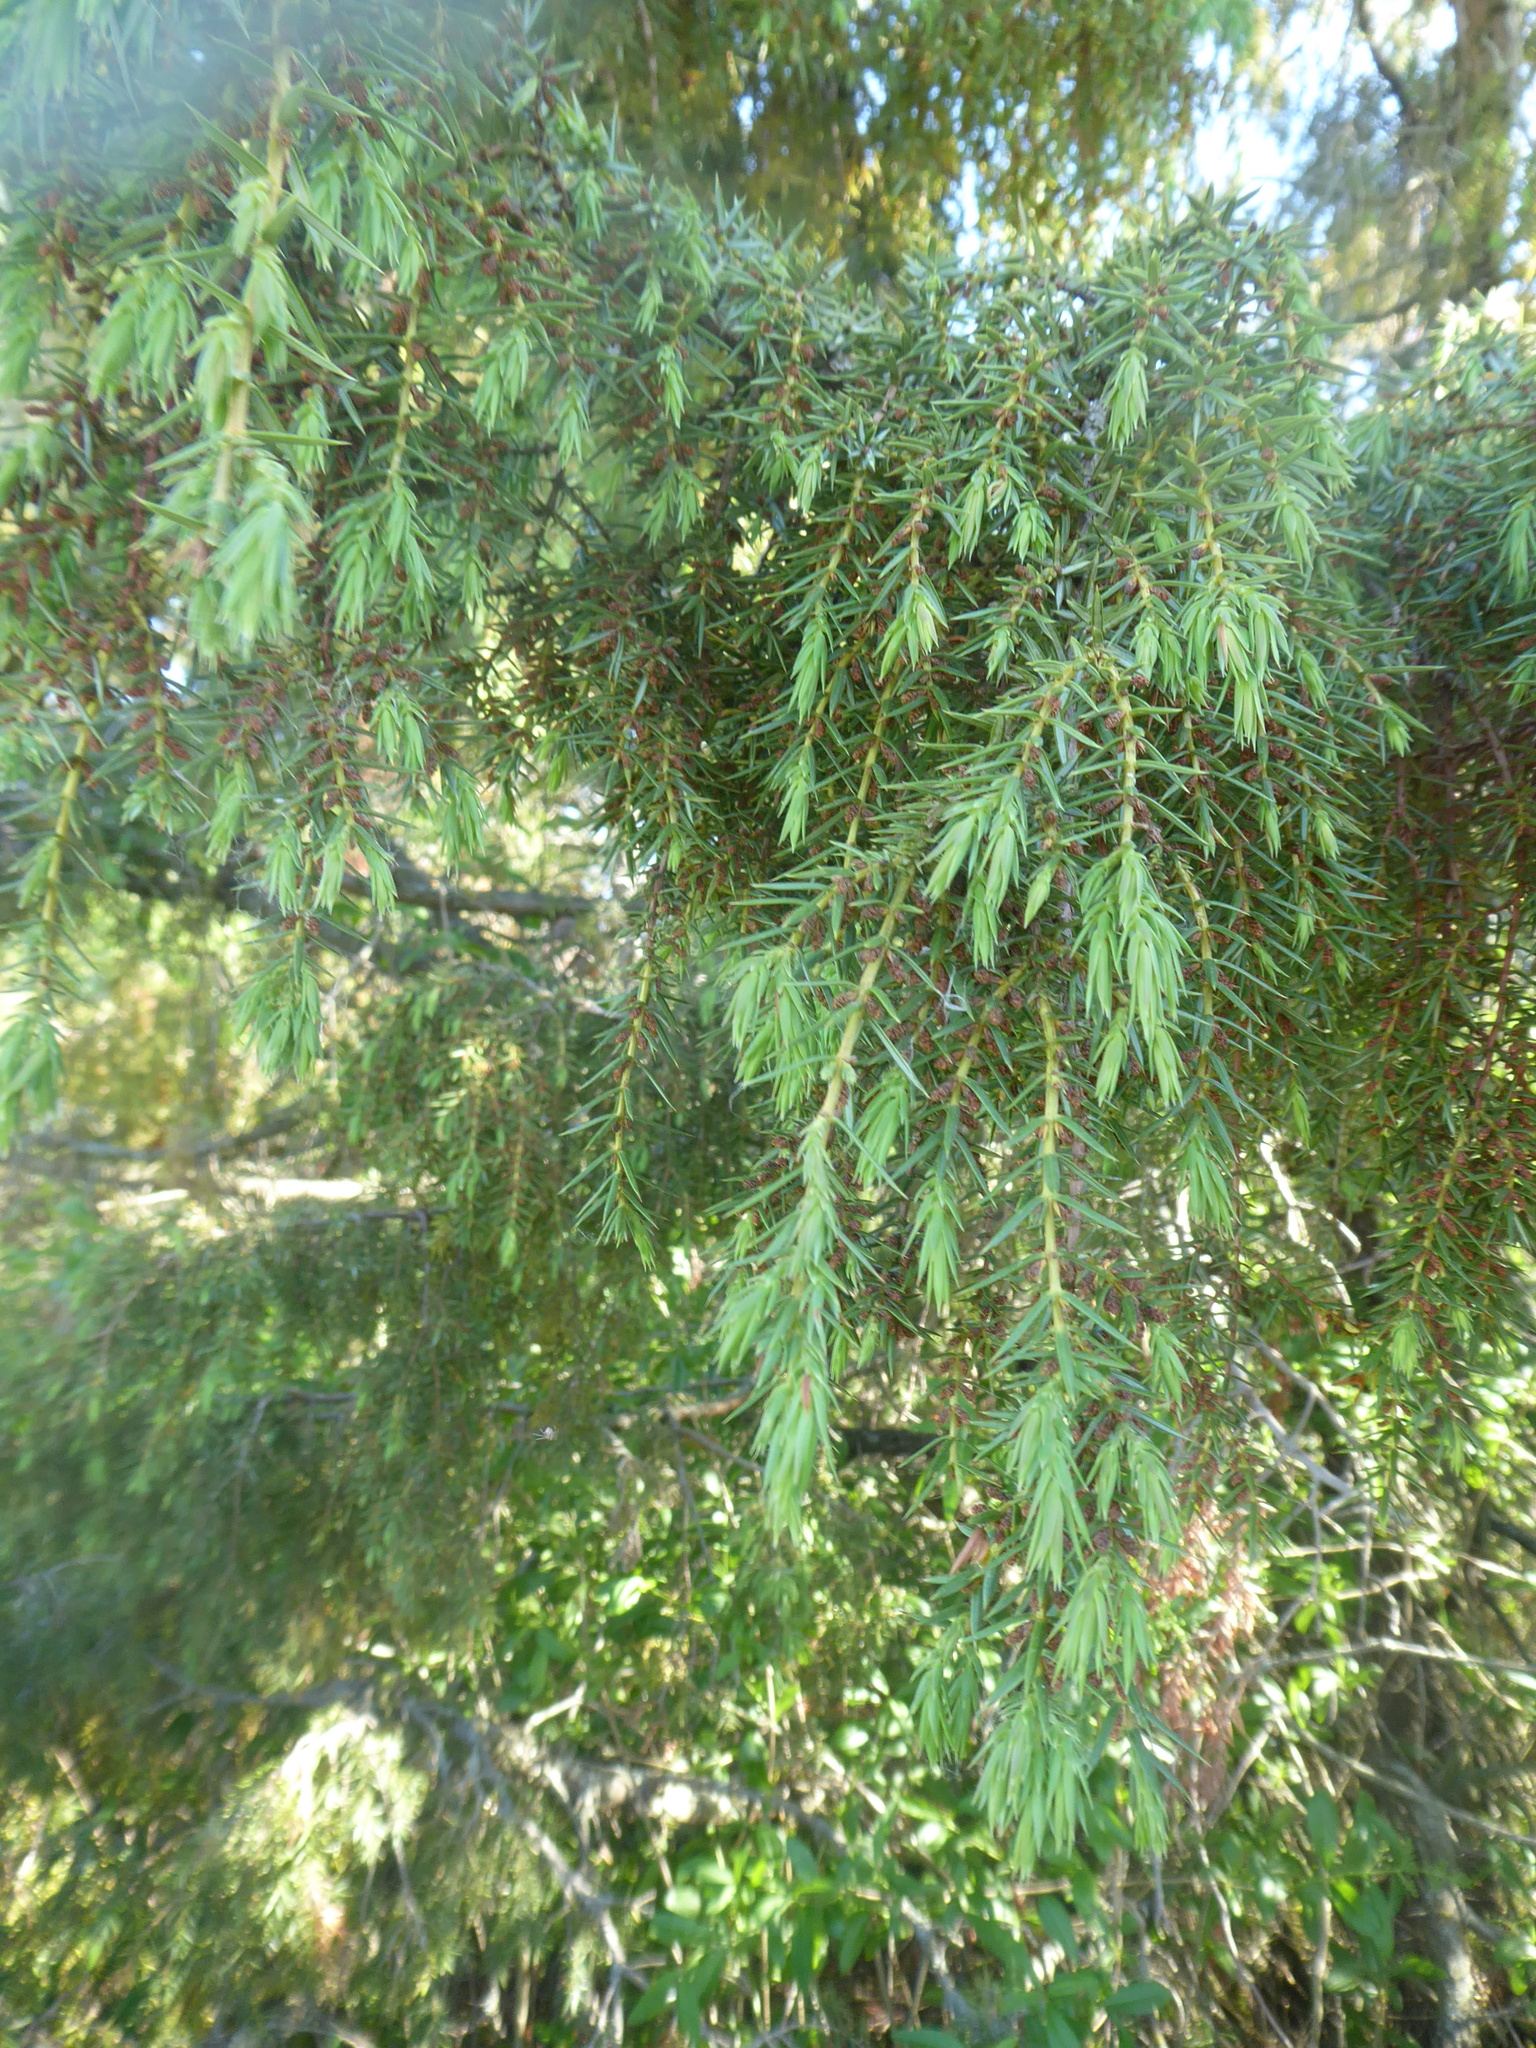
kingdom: Plantae
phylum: Tracheophyta
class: Pinopsida
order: Pinales
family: Cupressaceae
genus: Juniperus
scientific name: Juniperus communis
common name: Common juniper
